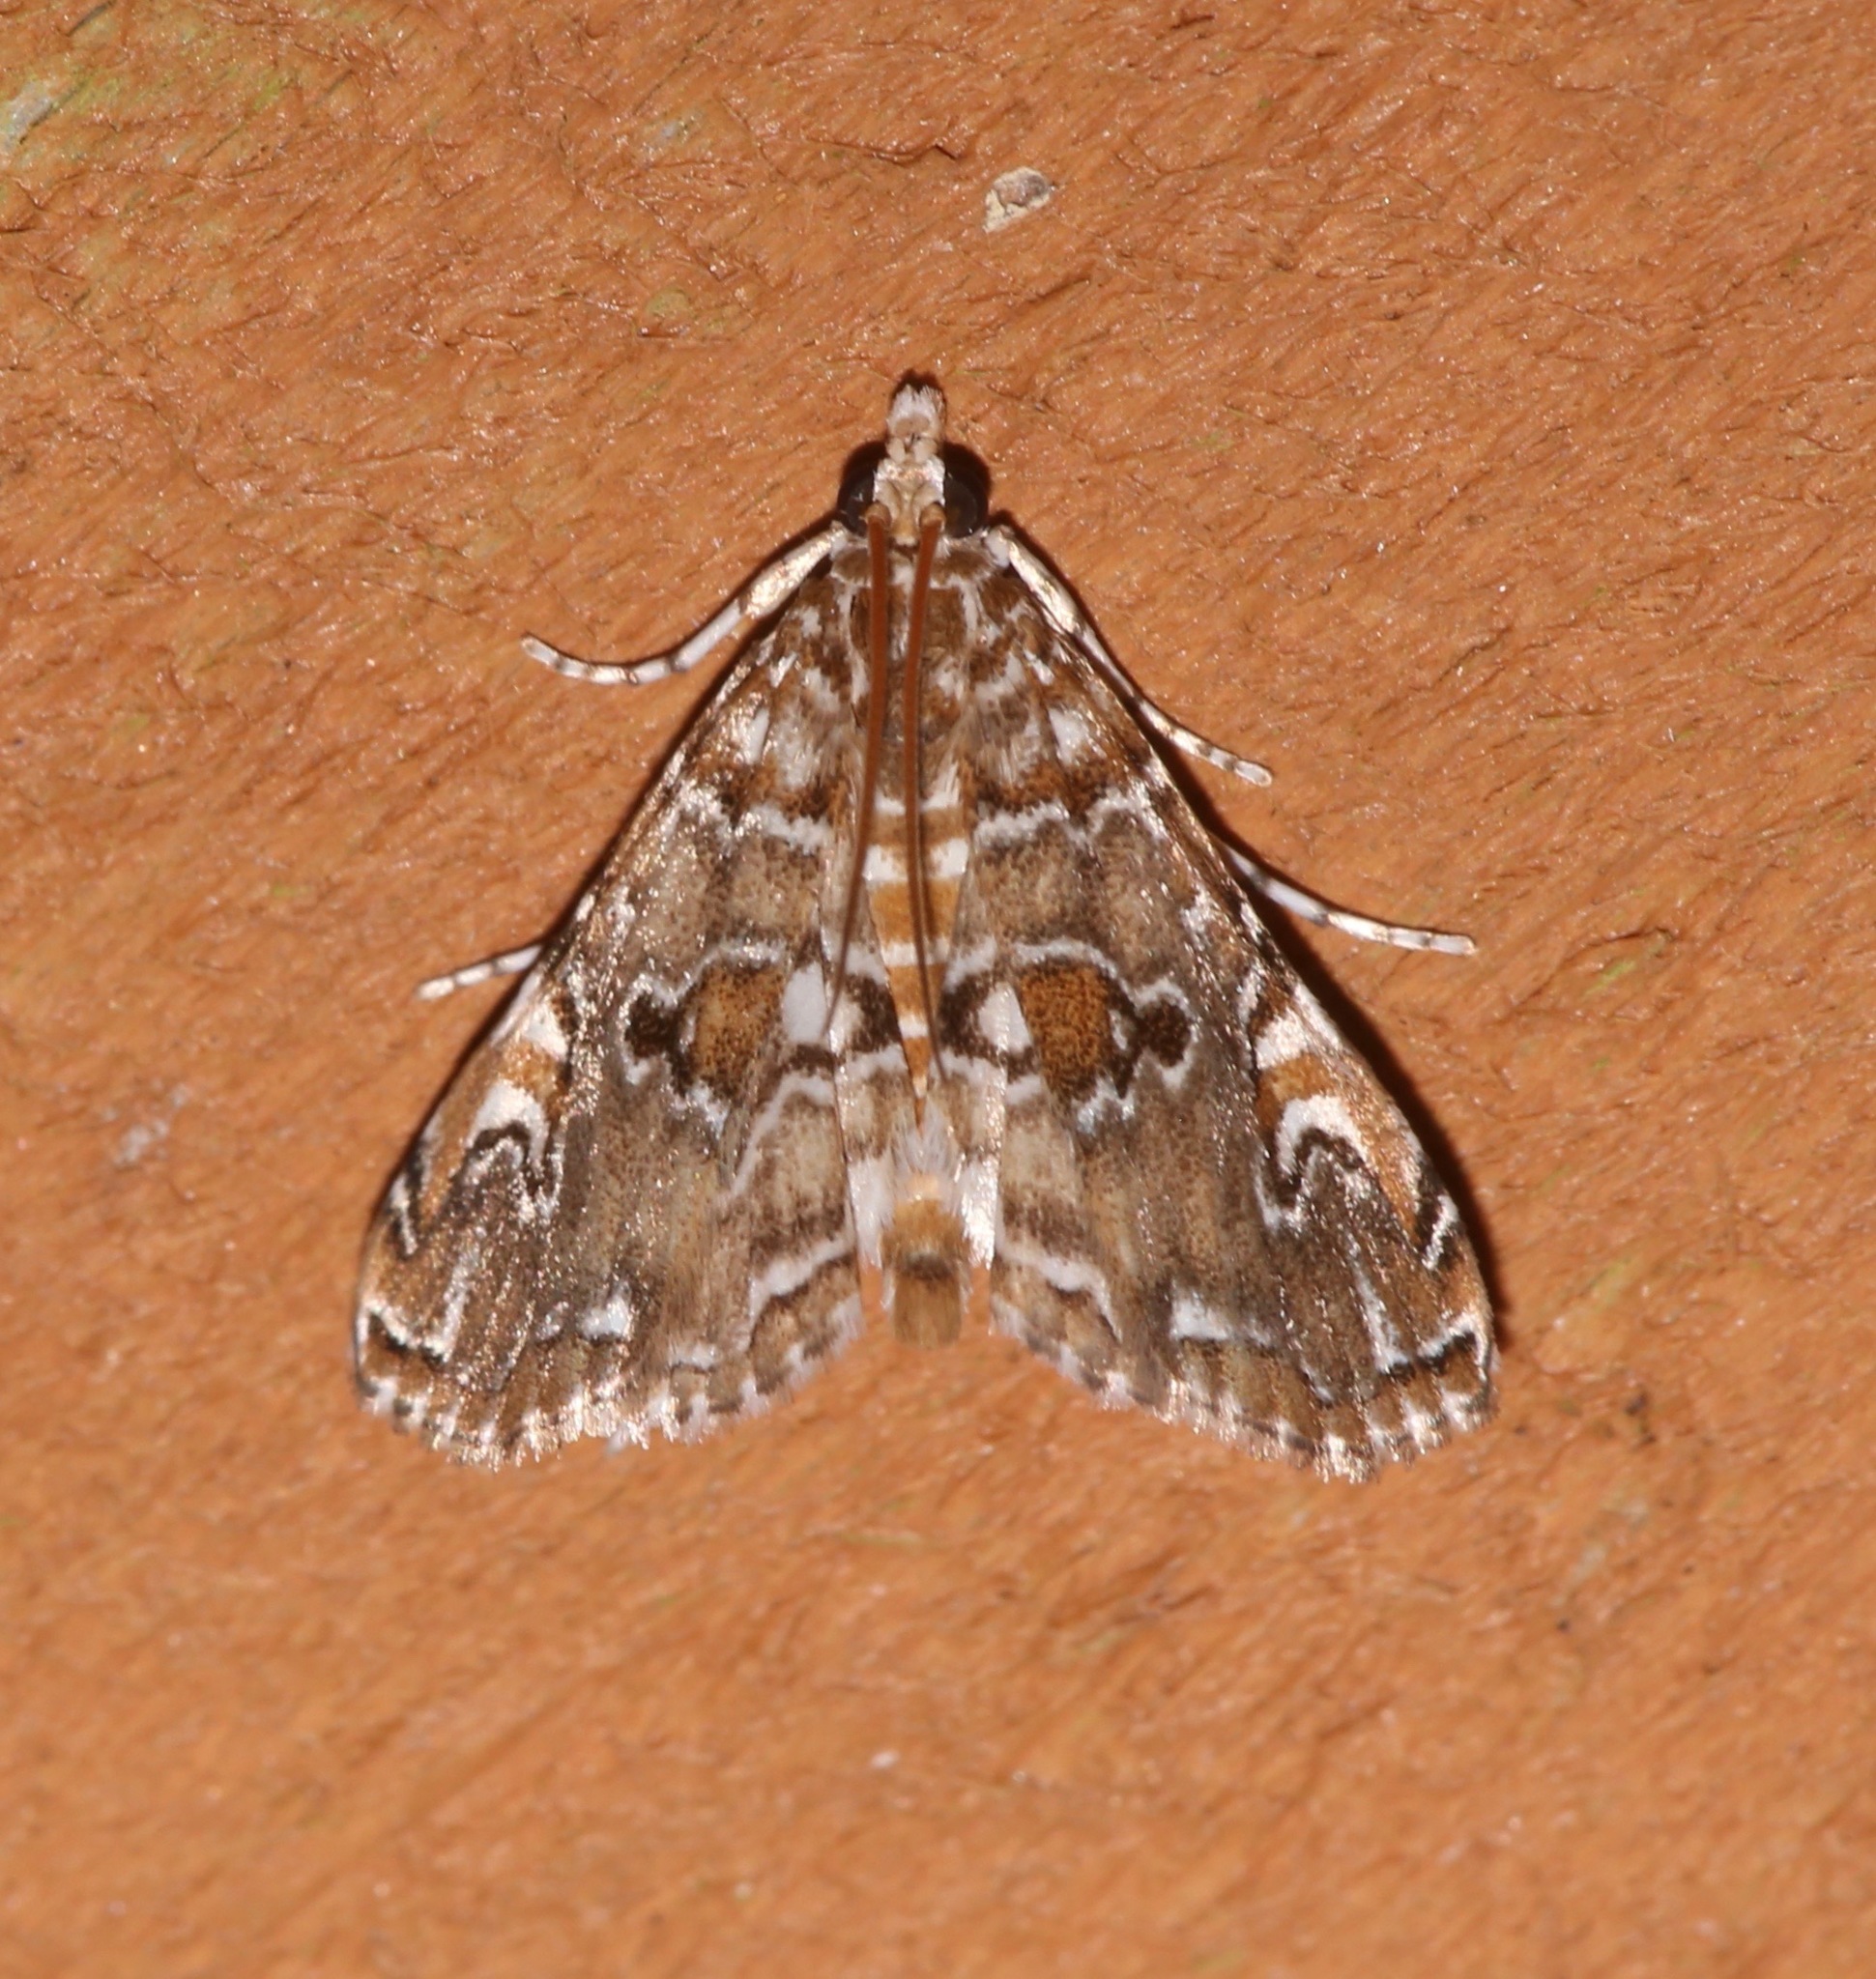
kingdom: Animalia
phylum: Arthropoda
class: Insecta
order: Lepidoptera
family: Crambidae
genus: Elophila
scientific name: Elophila gyralis
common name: Waterlily borer moth
